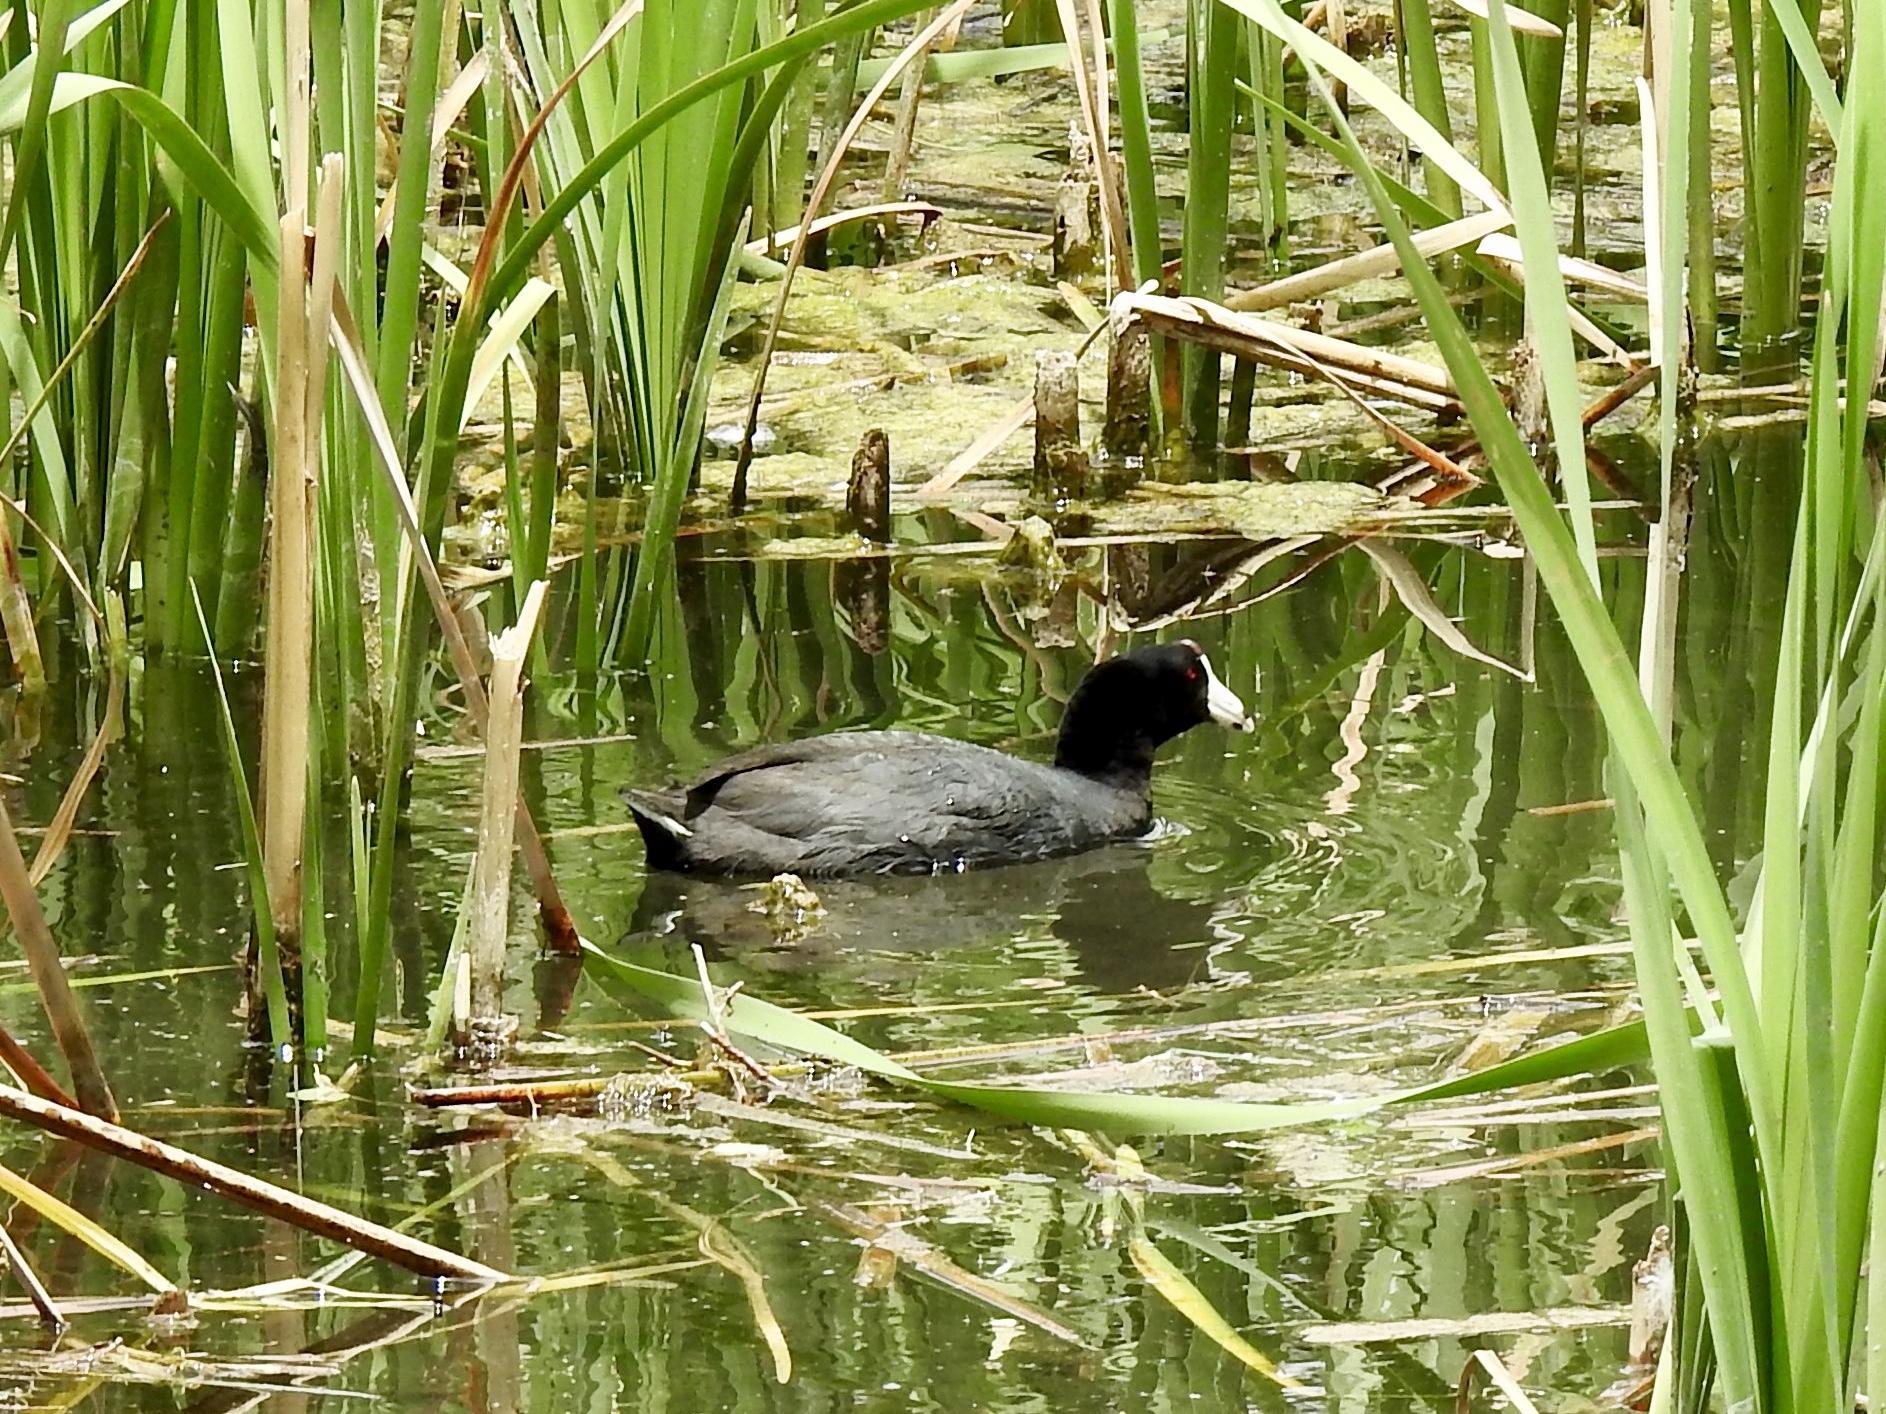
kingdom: Animalia
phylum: Chordata
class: Aves
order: Gruiformes
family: Rallidae
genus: Fulica
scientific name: Fulica americana
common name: American coot
